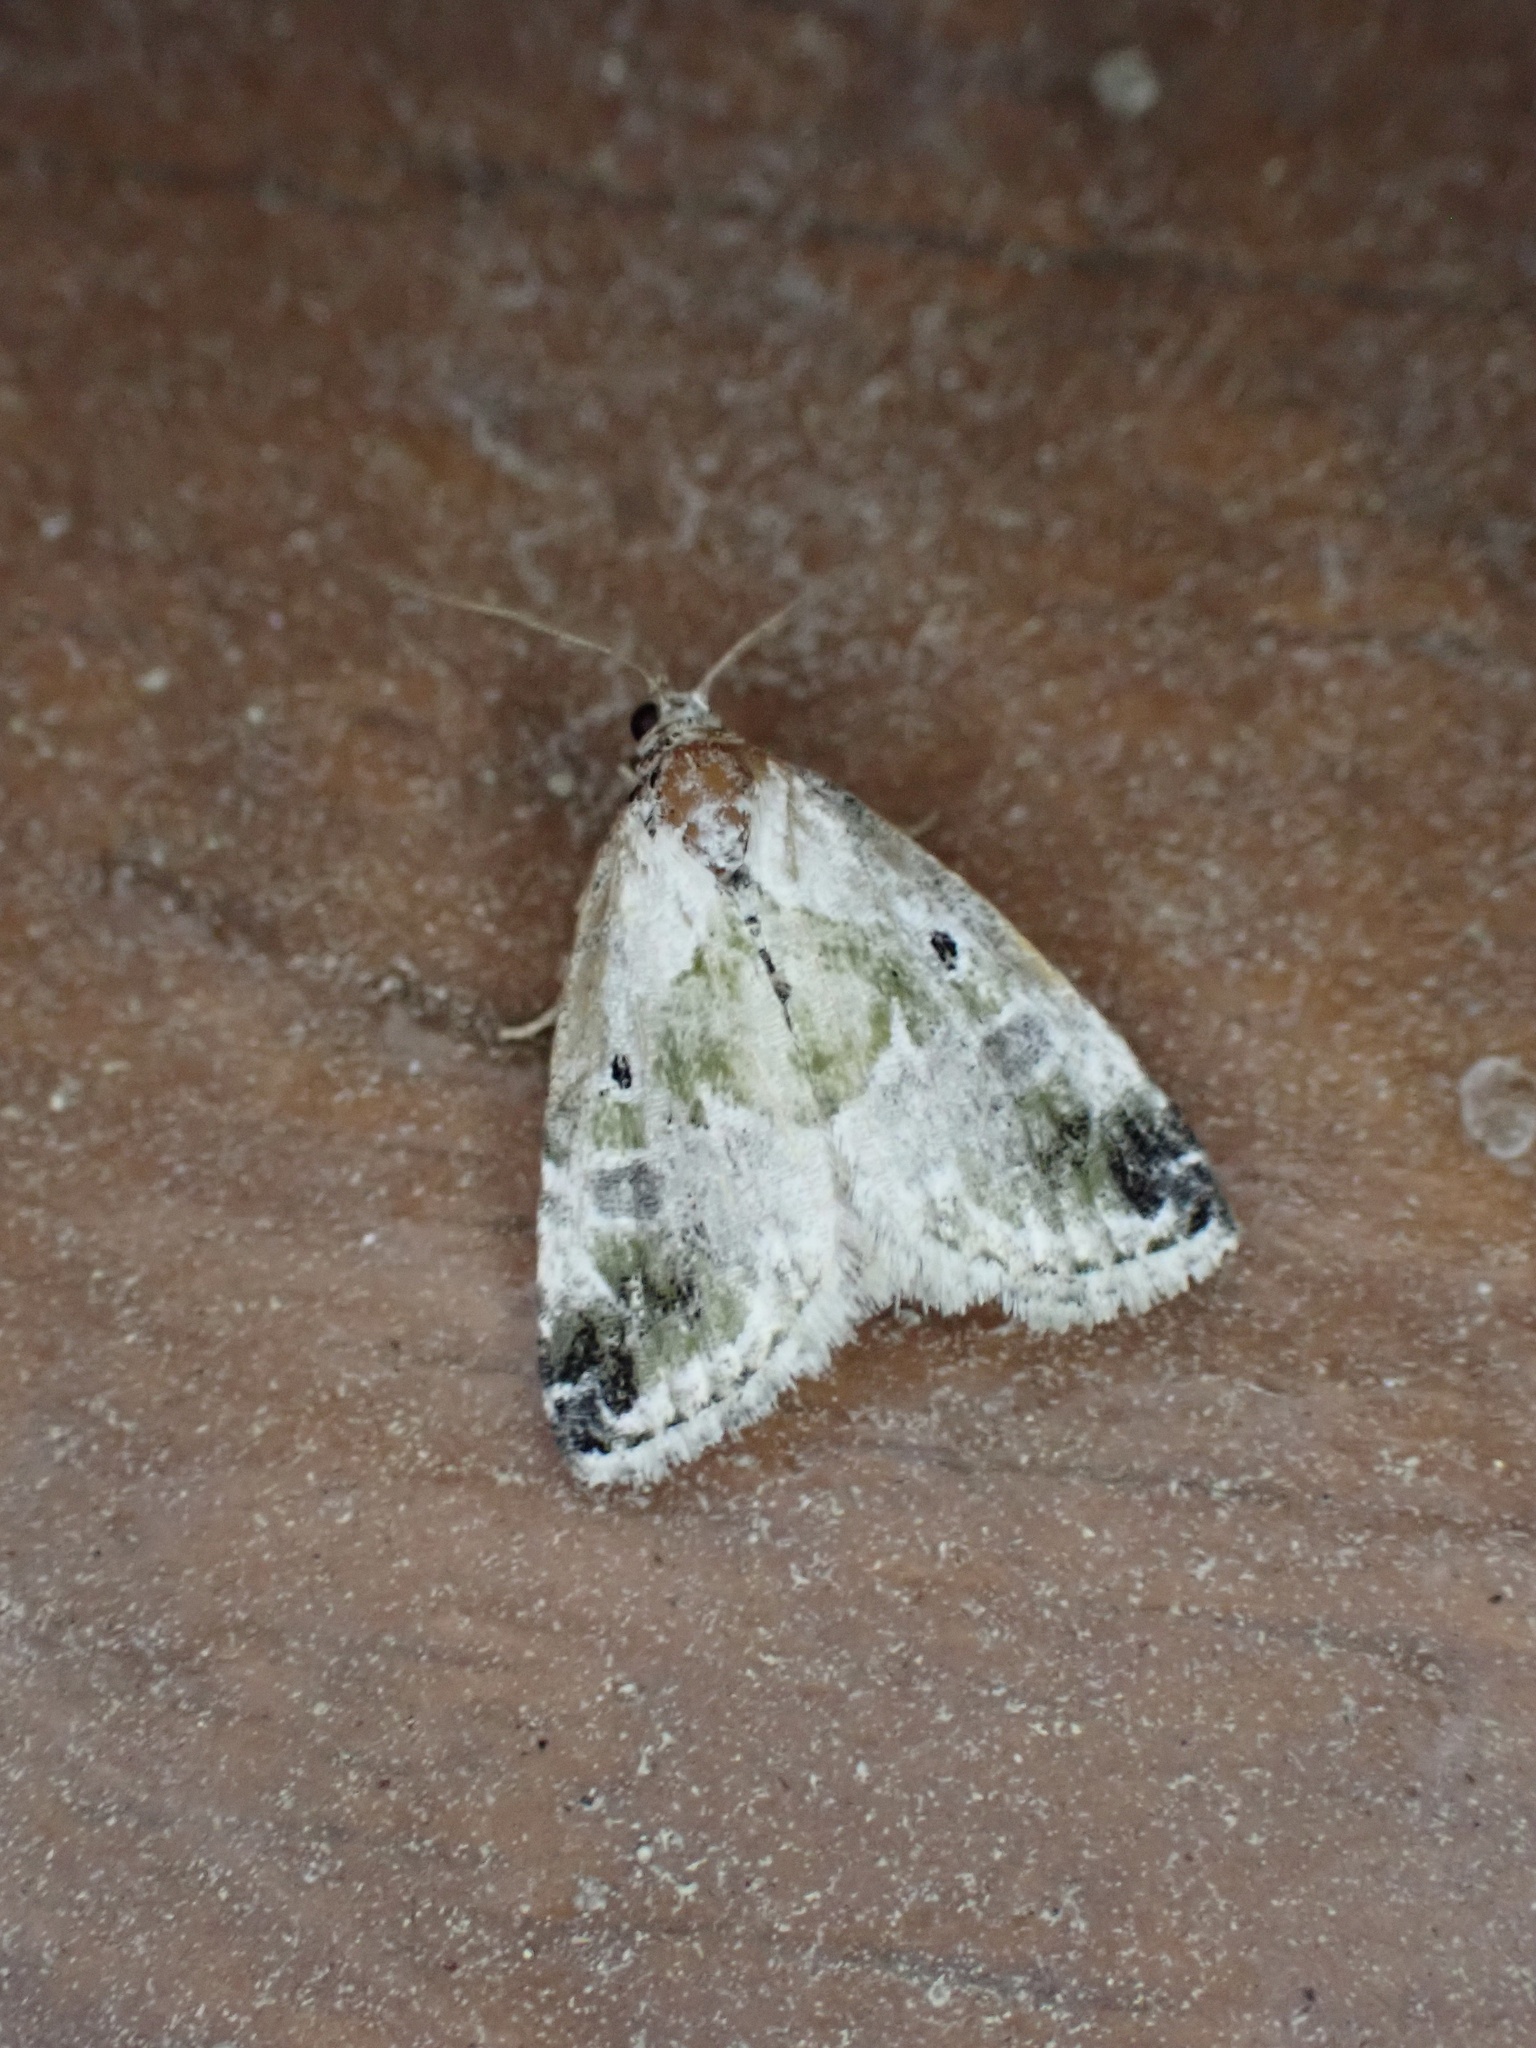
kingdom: Animalia
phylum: Arthropoda
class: Insecta
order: Lepidoptera
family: Noctuidae
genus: Maliattha
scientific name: Maliattha synochitis
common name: Black-dotted glyph
